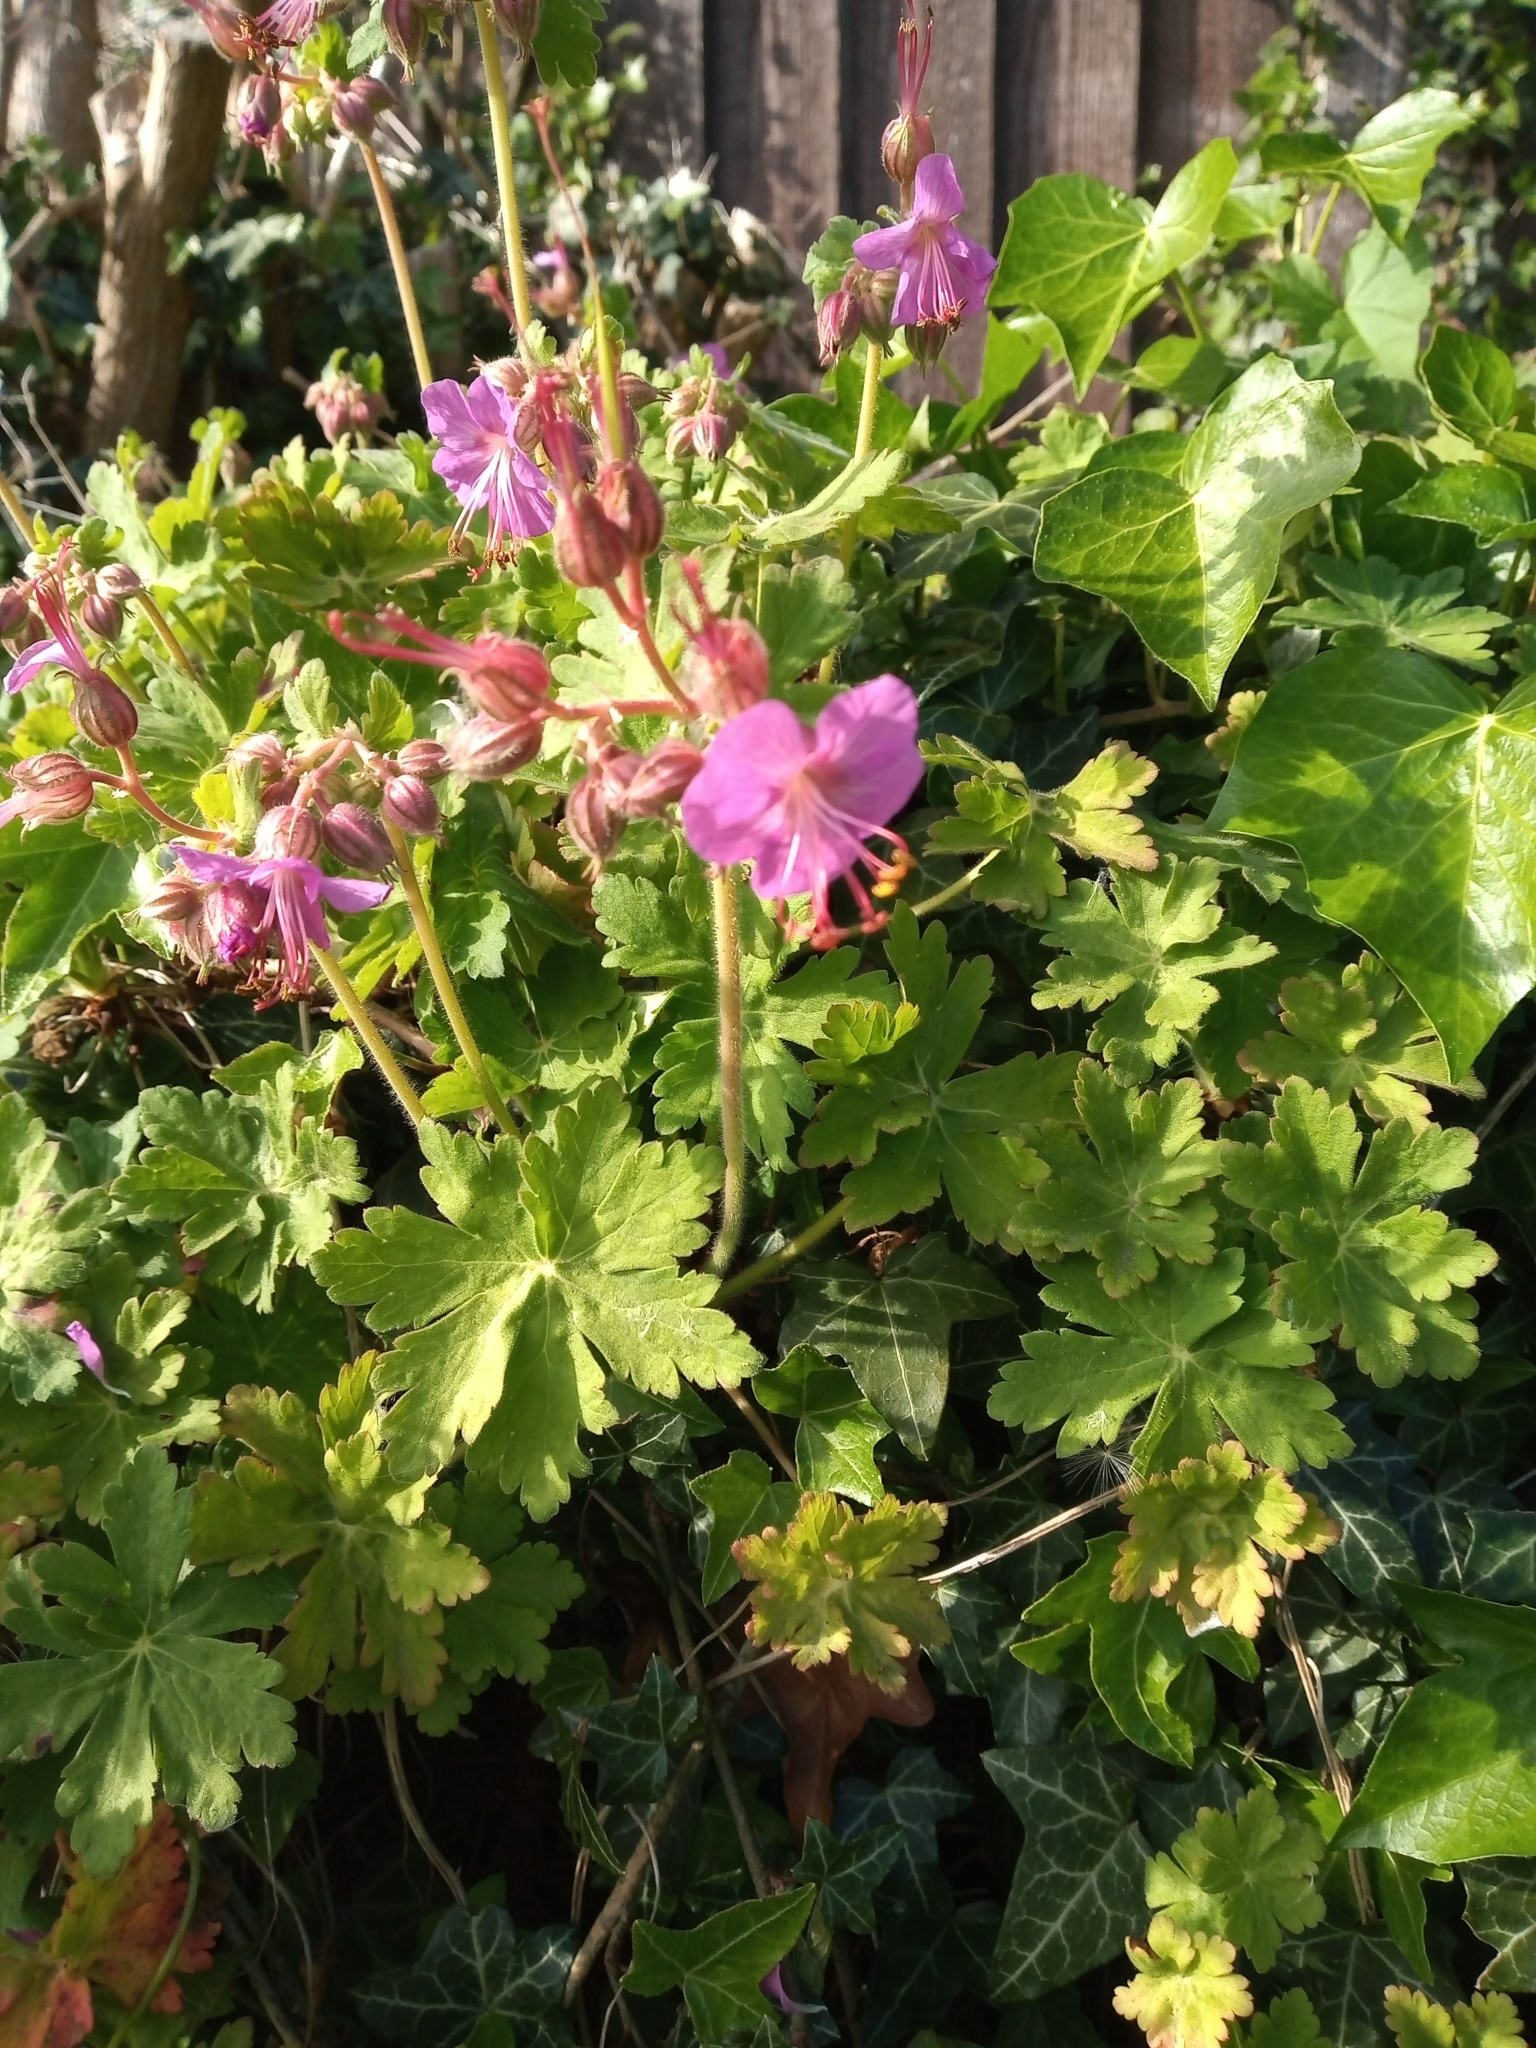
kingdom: Plantae
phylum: Tracheophyta
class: Magnoliopsida
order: Geraniales
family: Geraniaceae
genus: Geranium
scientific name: Geranium macrorrhizum
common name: Rock crane's-bill
